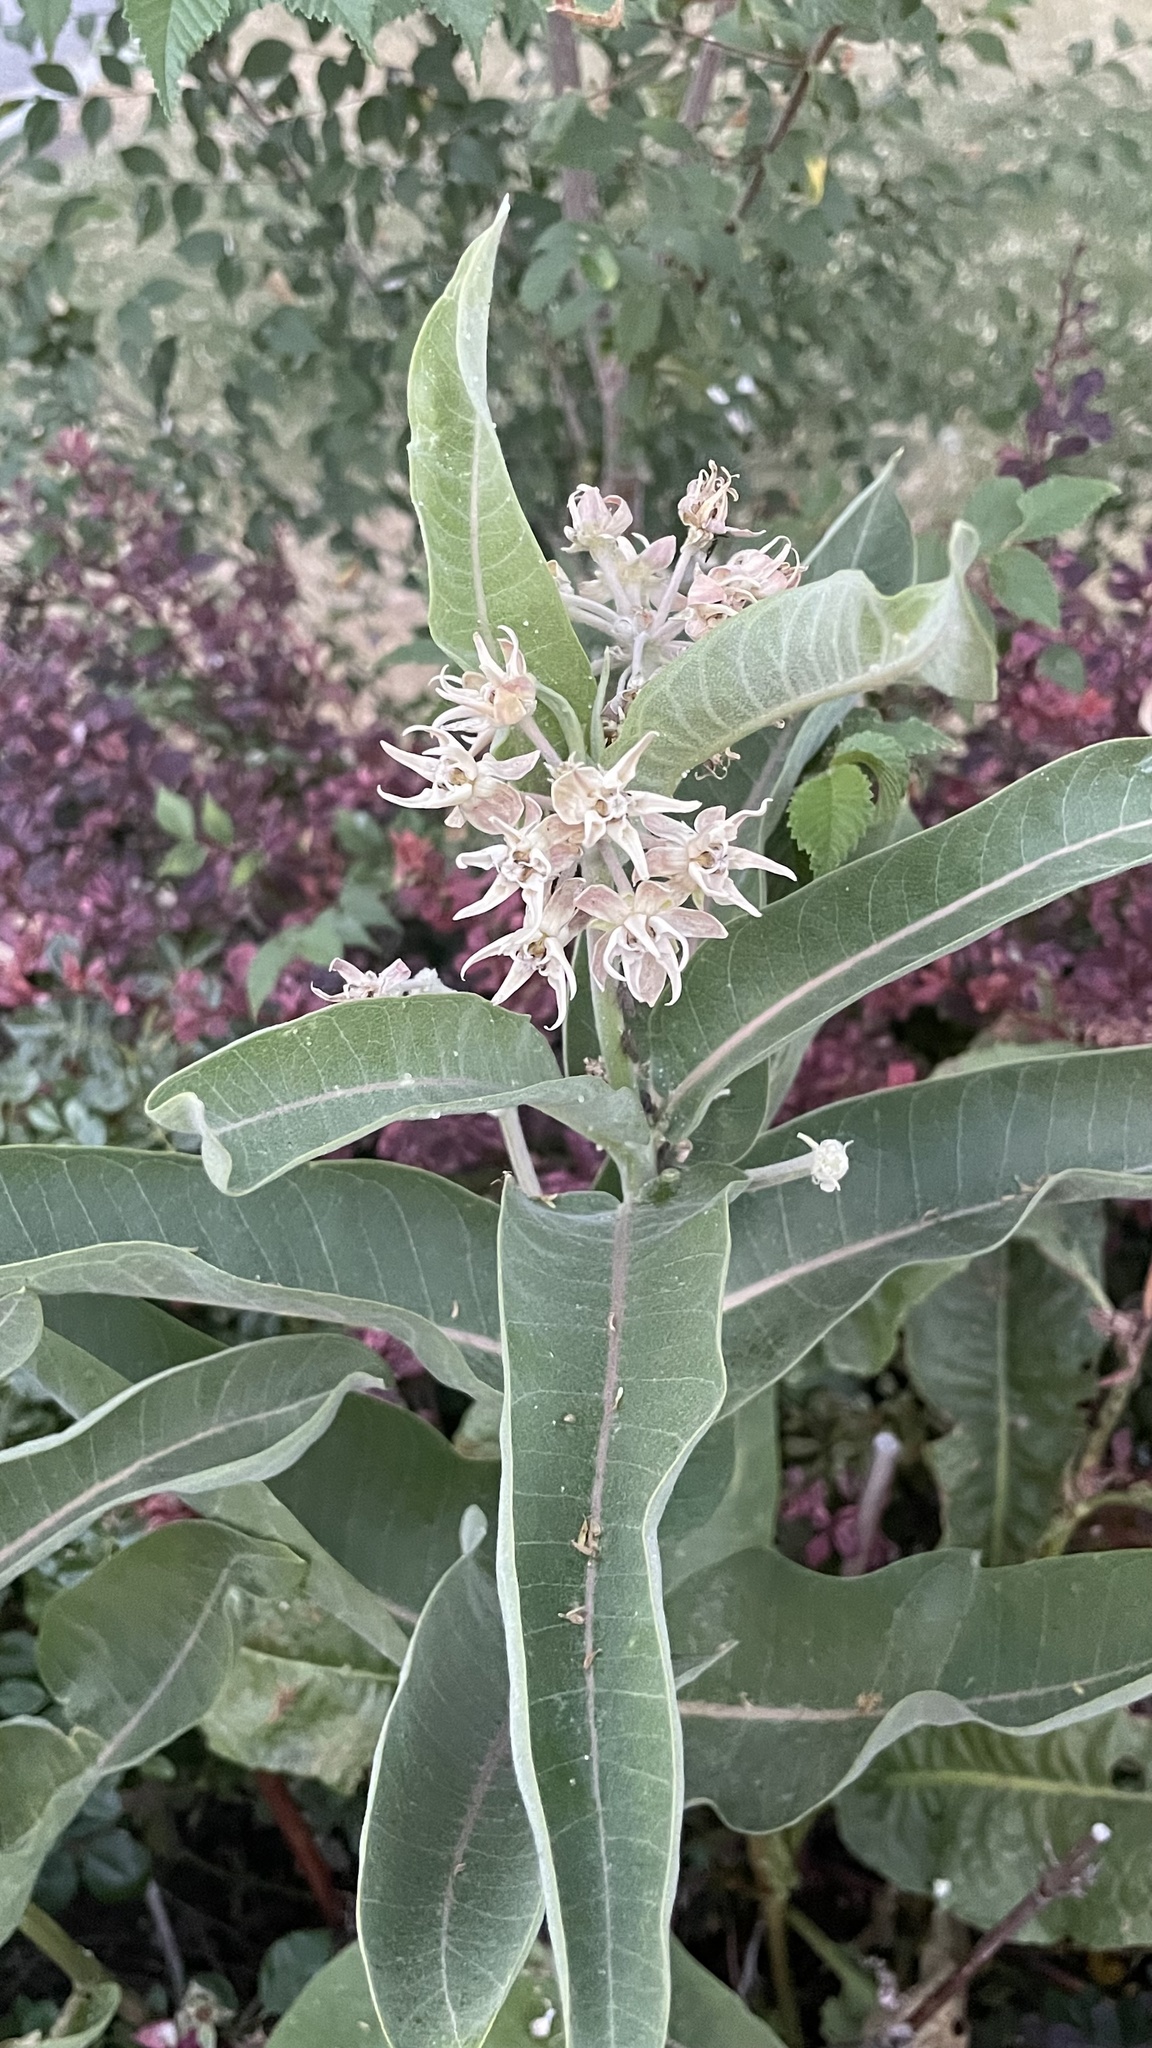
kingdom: Plantae
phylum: Tracheophyta
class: Magnoliopsida
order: Gentianales
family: Apocynaceae
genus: Asclepias
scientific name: Asclepias speciosa
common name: Showy milkweed
